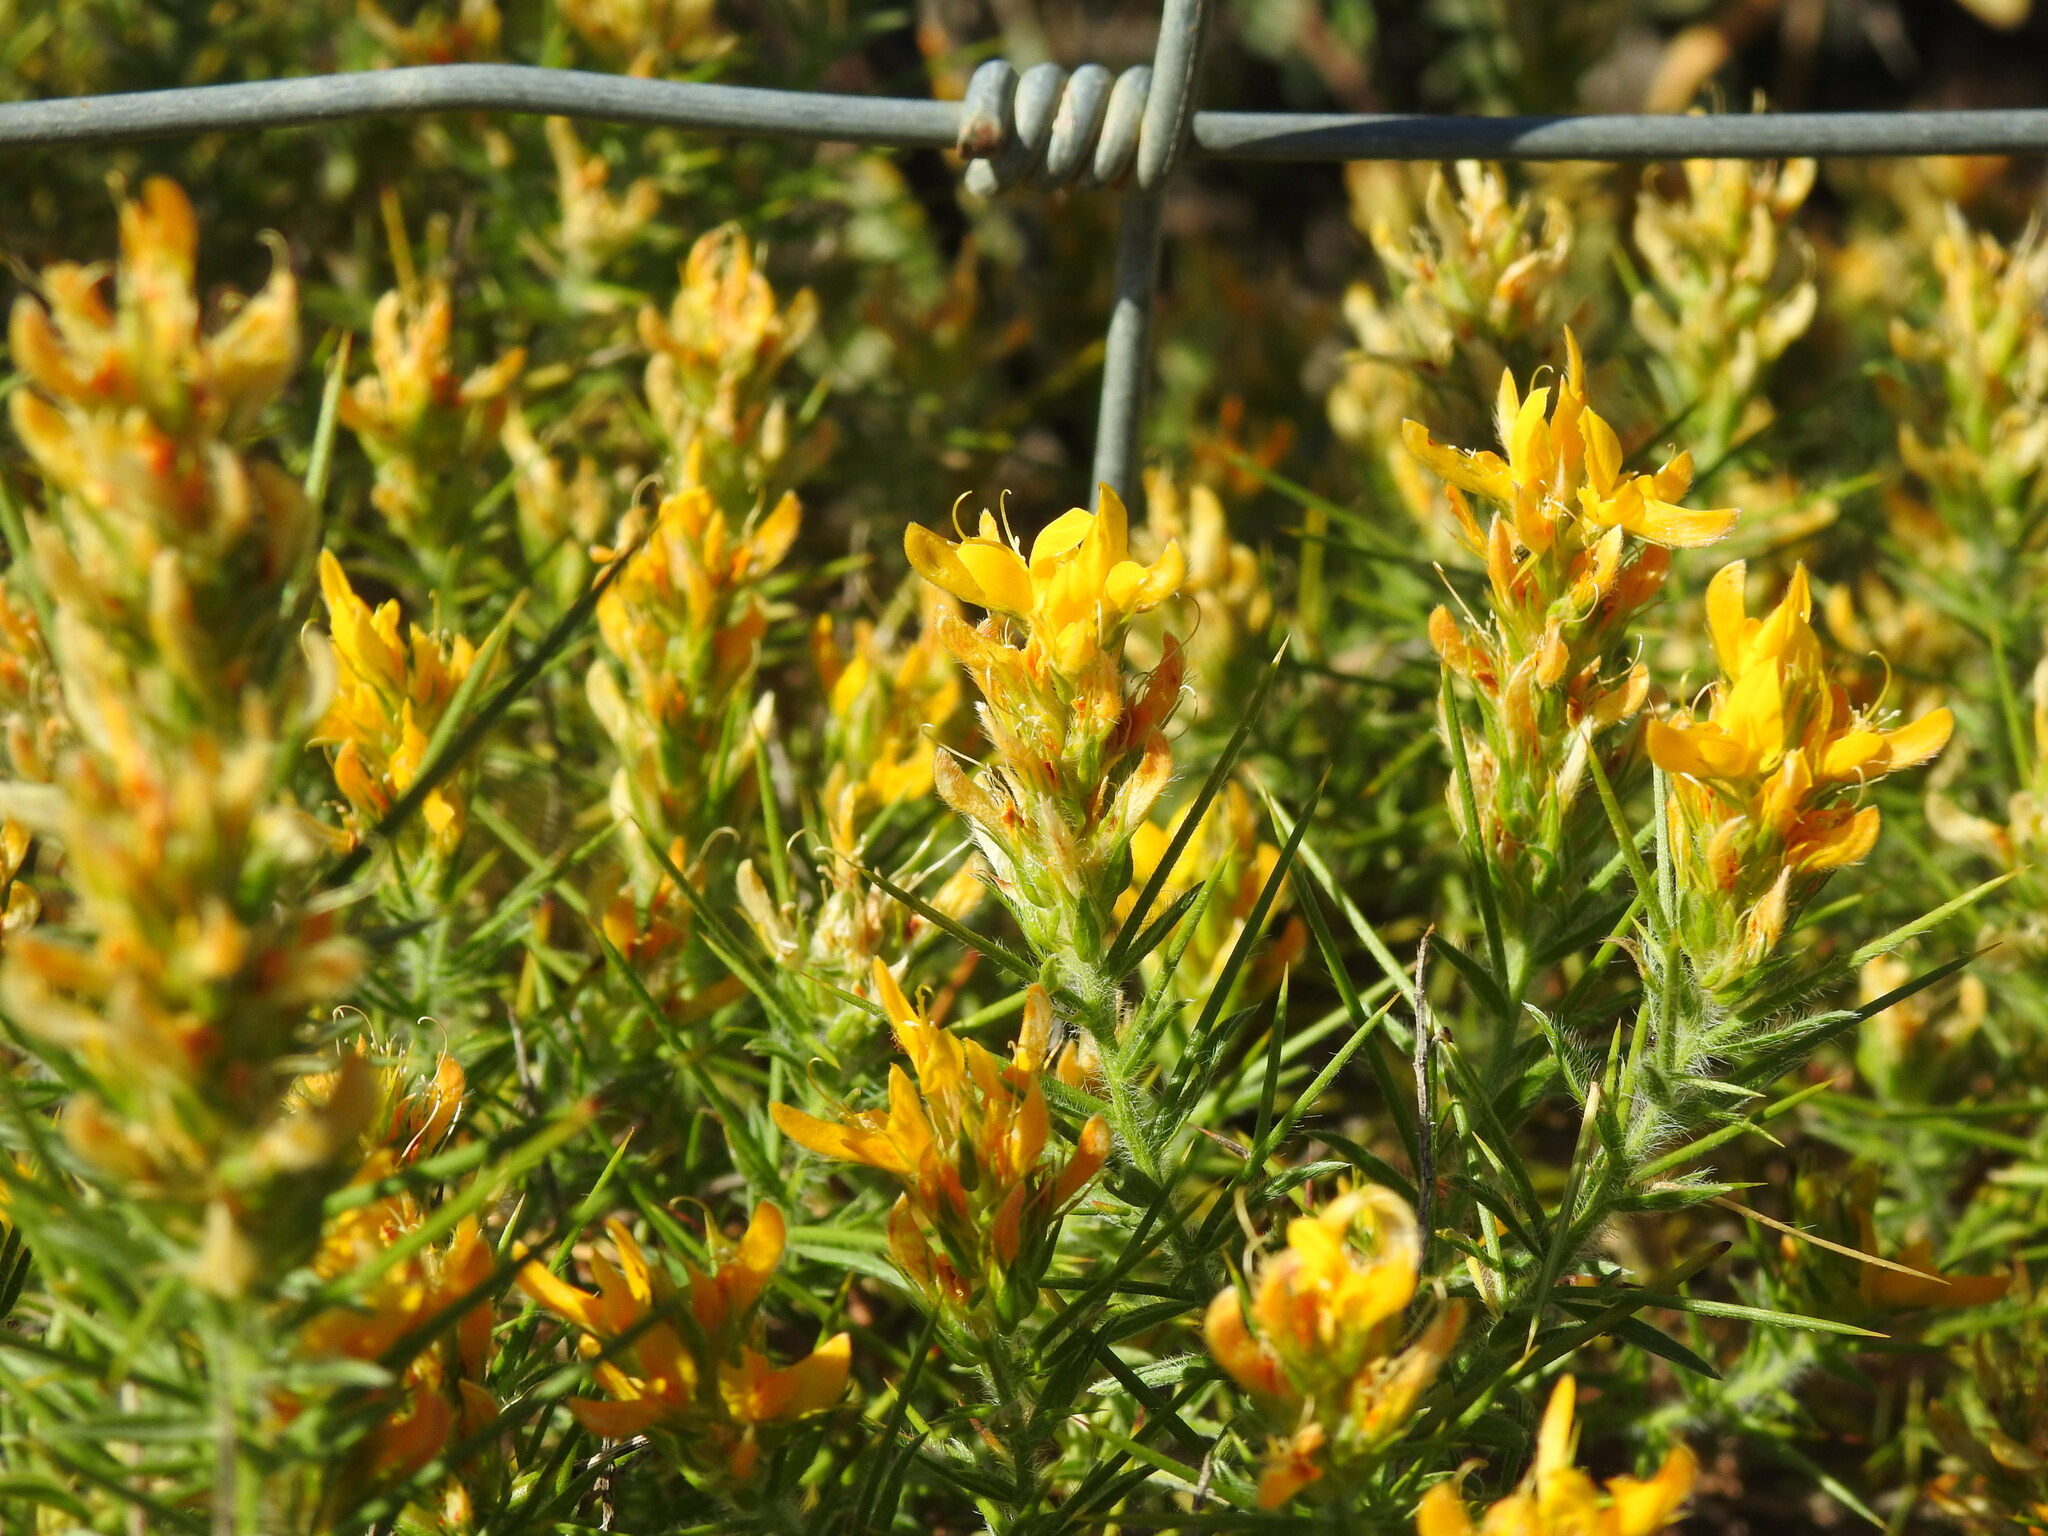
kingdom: Plantae
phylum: Tracheophyta
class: Magnoliopsida
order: Fabales
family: Fabaceae
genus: Genista
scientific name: Genista hirsuta
